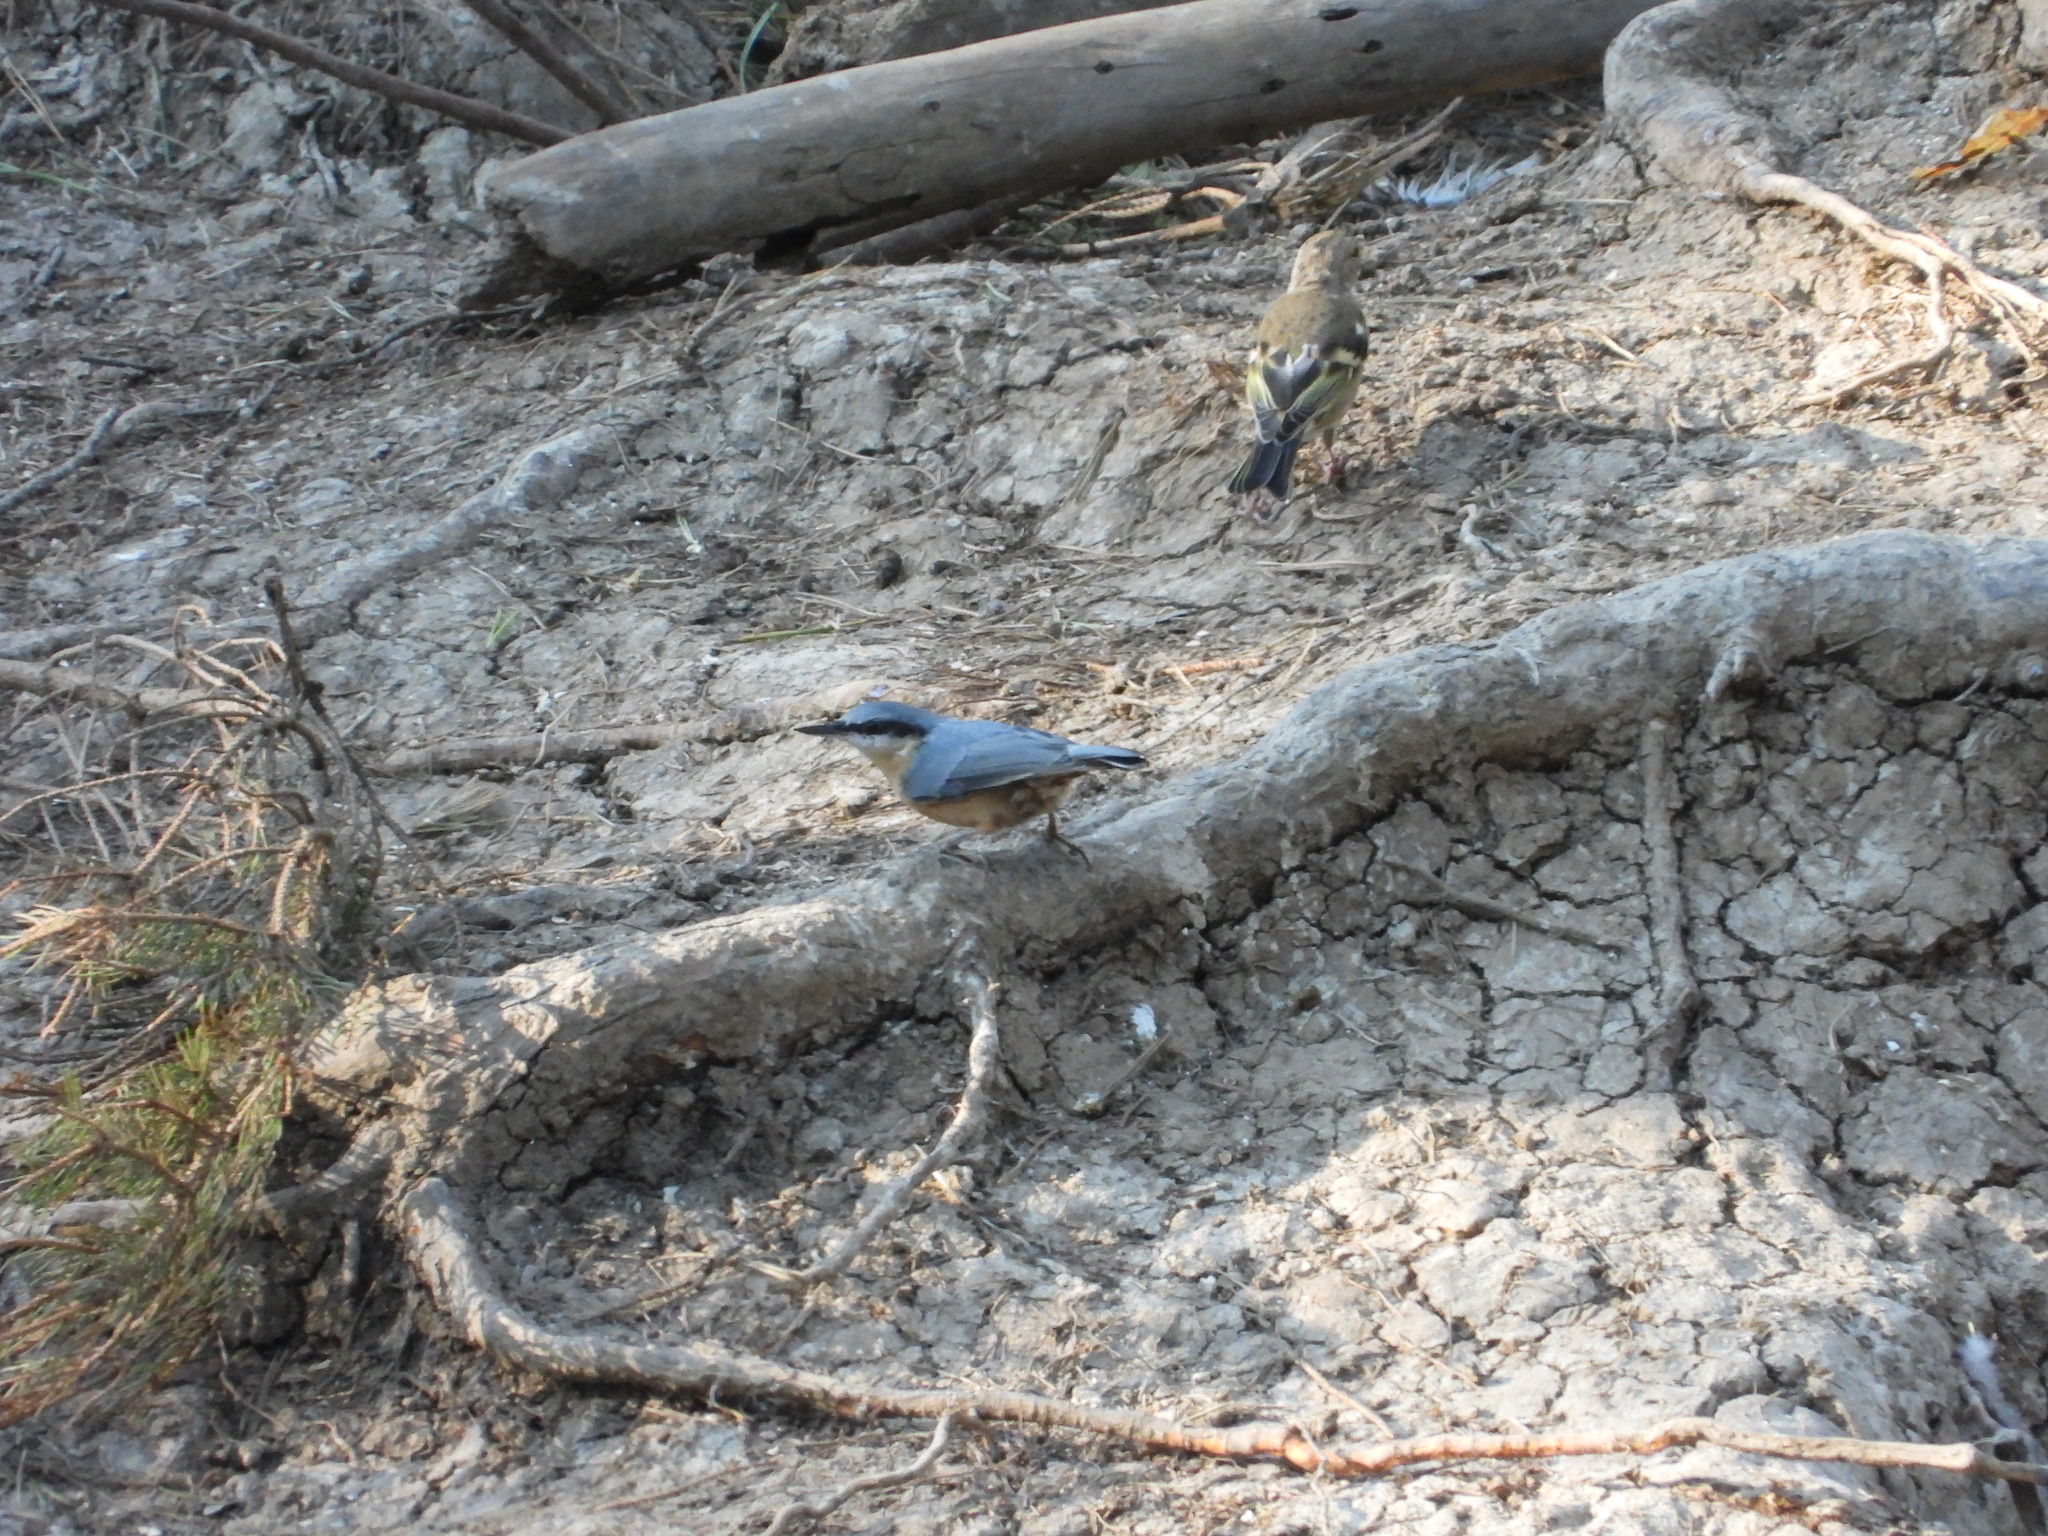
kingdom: Animalia
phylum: Chordata
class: Aves
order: Passeriformes
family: Sittidae
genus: Sitta
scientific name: Sitta europaea
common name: Eurasian nuthatch
